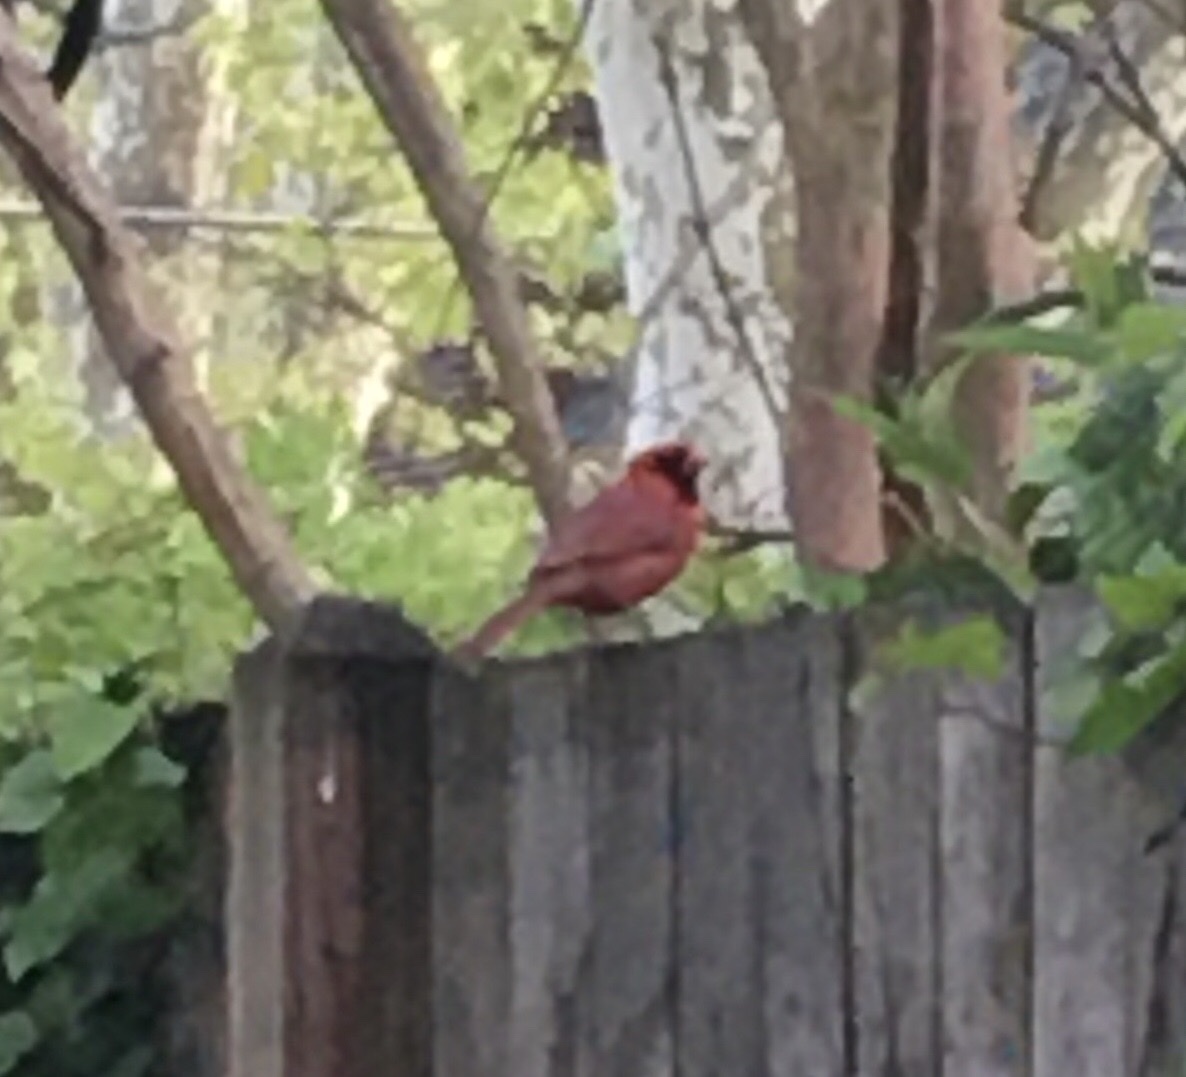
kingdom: Animalia
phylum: Chordata
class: Aves
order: Passeriformes
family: Cardinalidae
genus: Cardinalis
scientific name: Cardinalis cardinalis
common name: Northern cardinal
